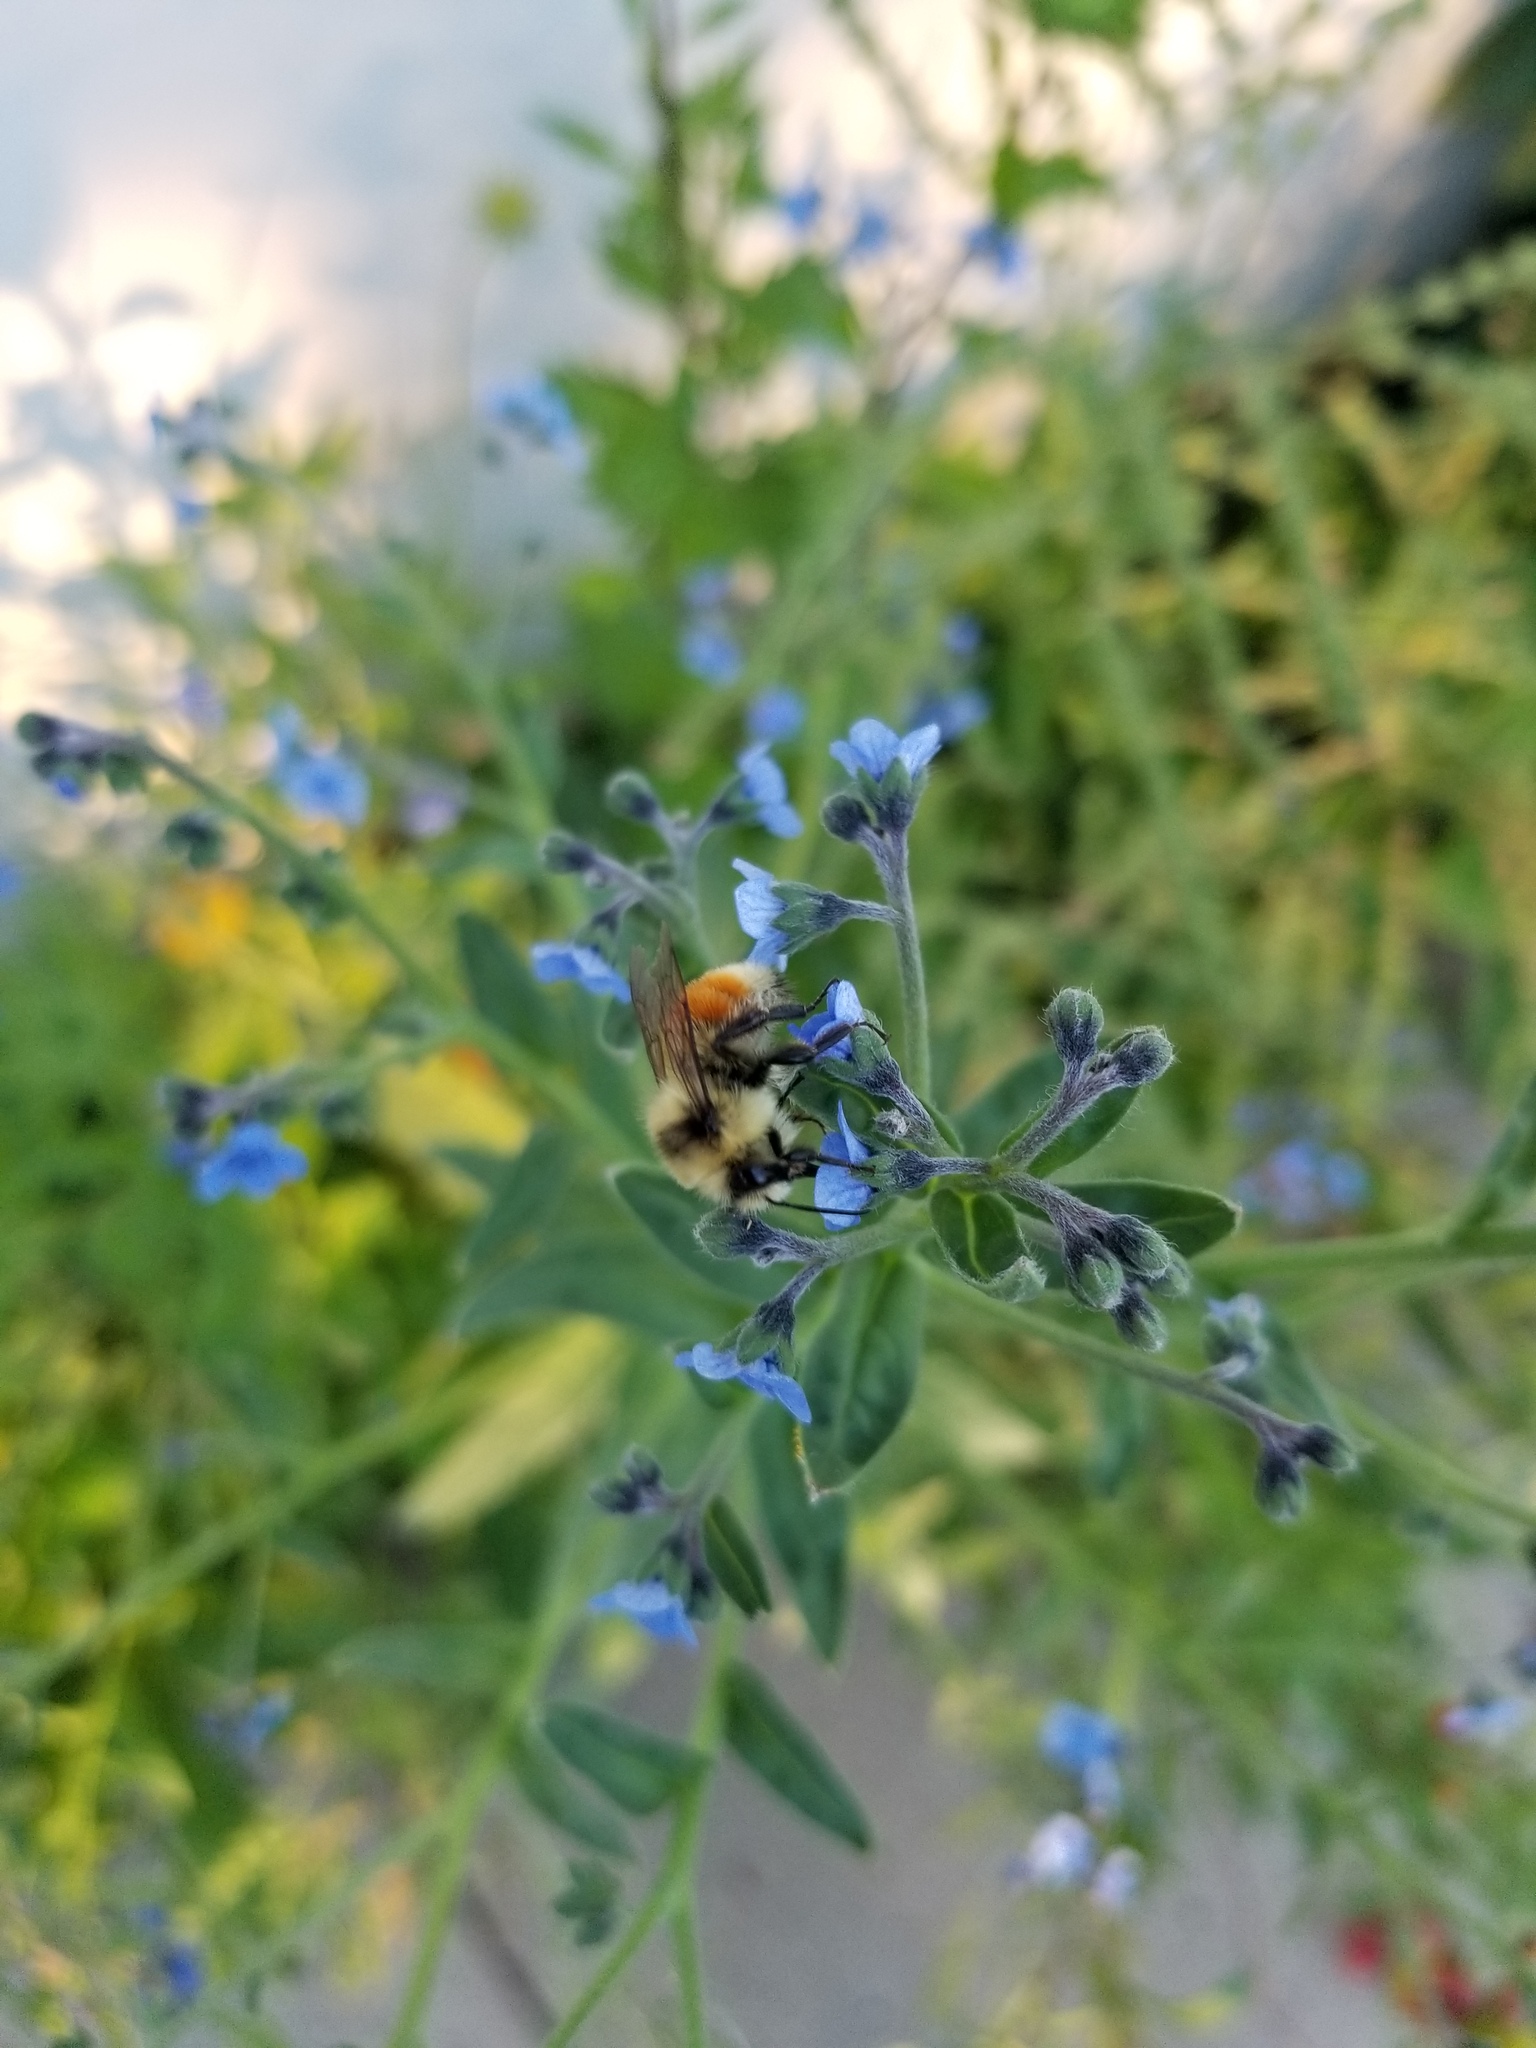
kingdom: Animalia
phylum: Arthropoda
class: Insecta
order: Hymenoptera
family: Apidae
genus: Bombus
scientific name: Bombus huntii
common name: Hunt bumble bee
